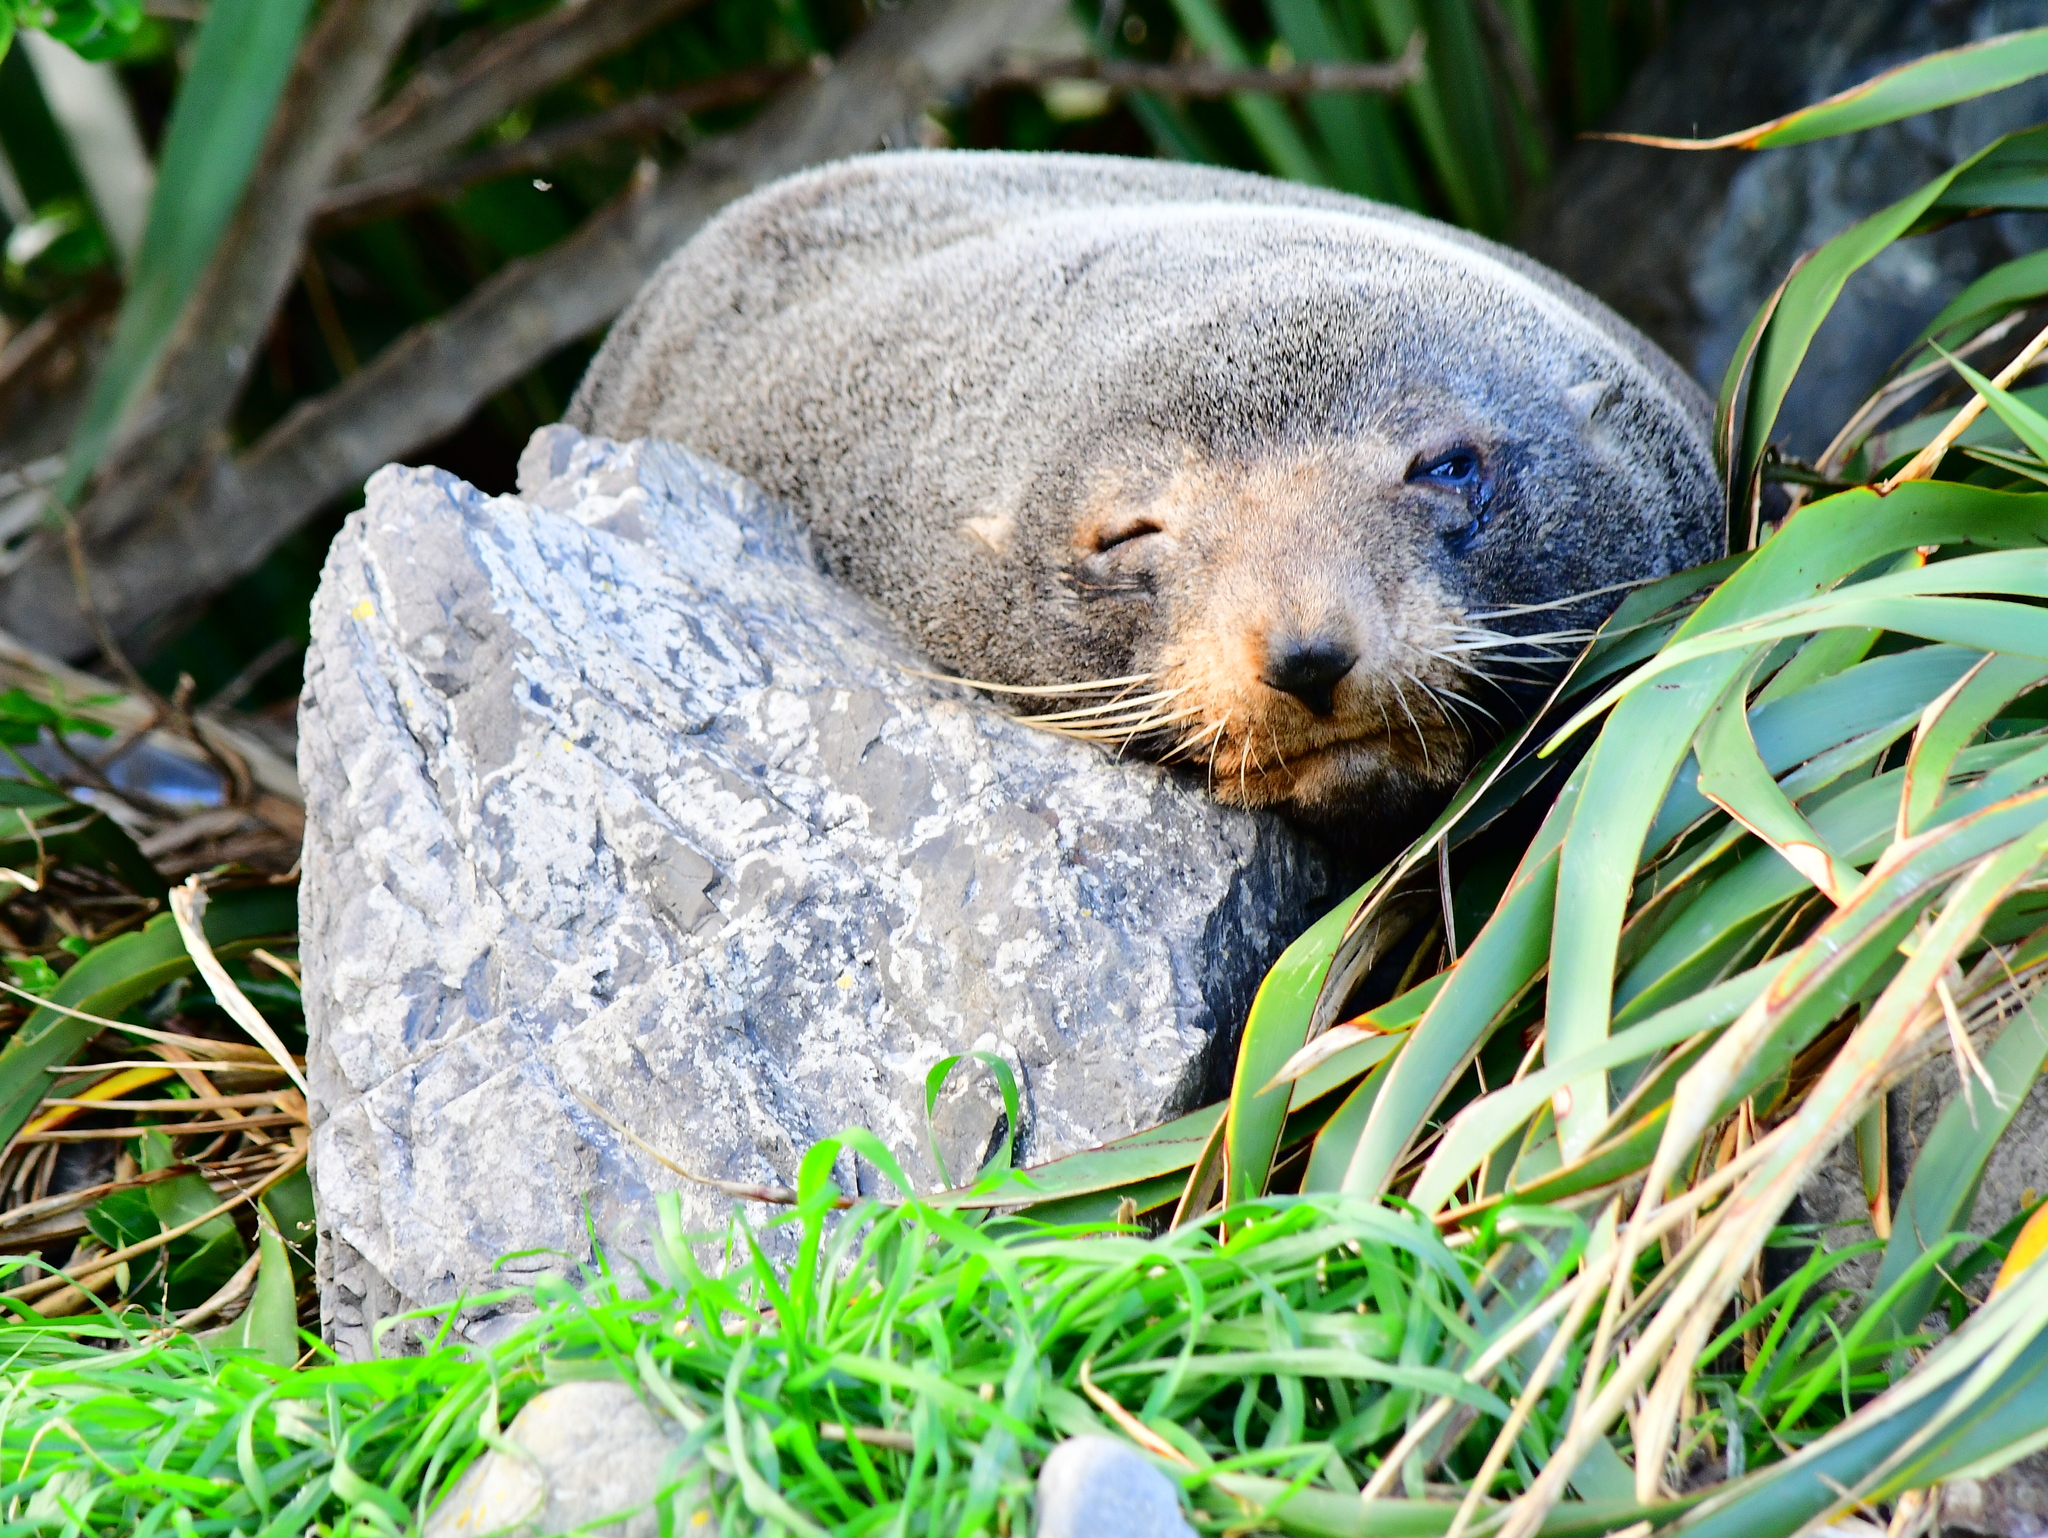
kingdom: Animalia
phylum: Chordata
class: Mammalia
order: Carnivora
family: Otariidae
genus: Arctocephalus
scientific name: Arctocephalus forsteri
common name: New zealand fur seal
